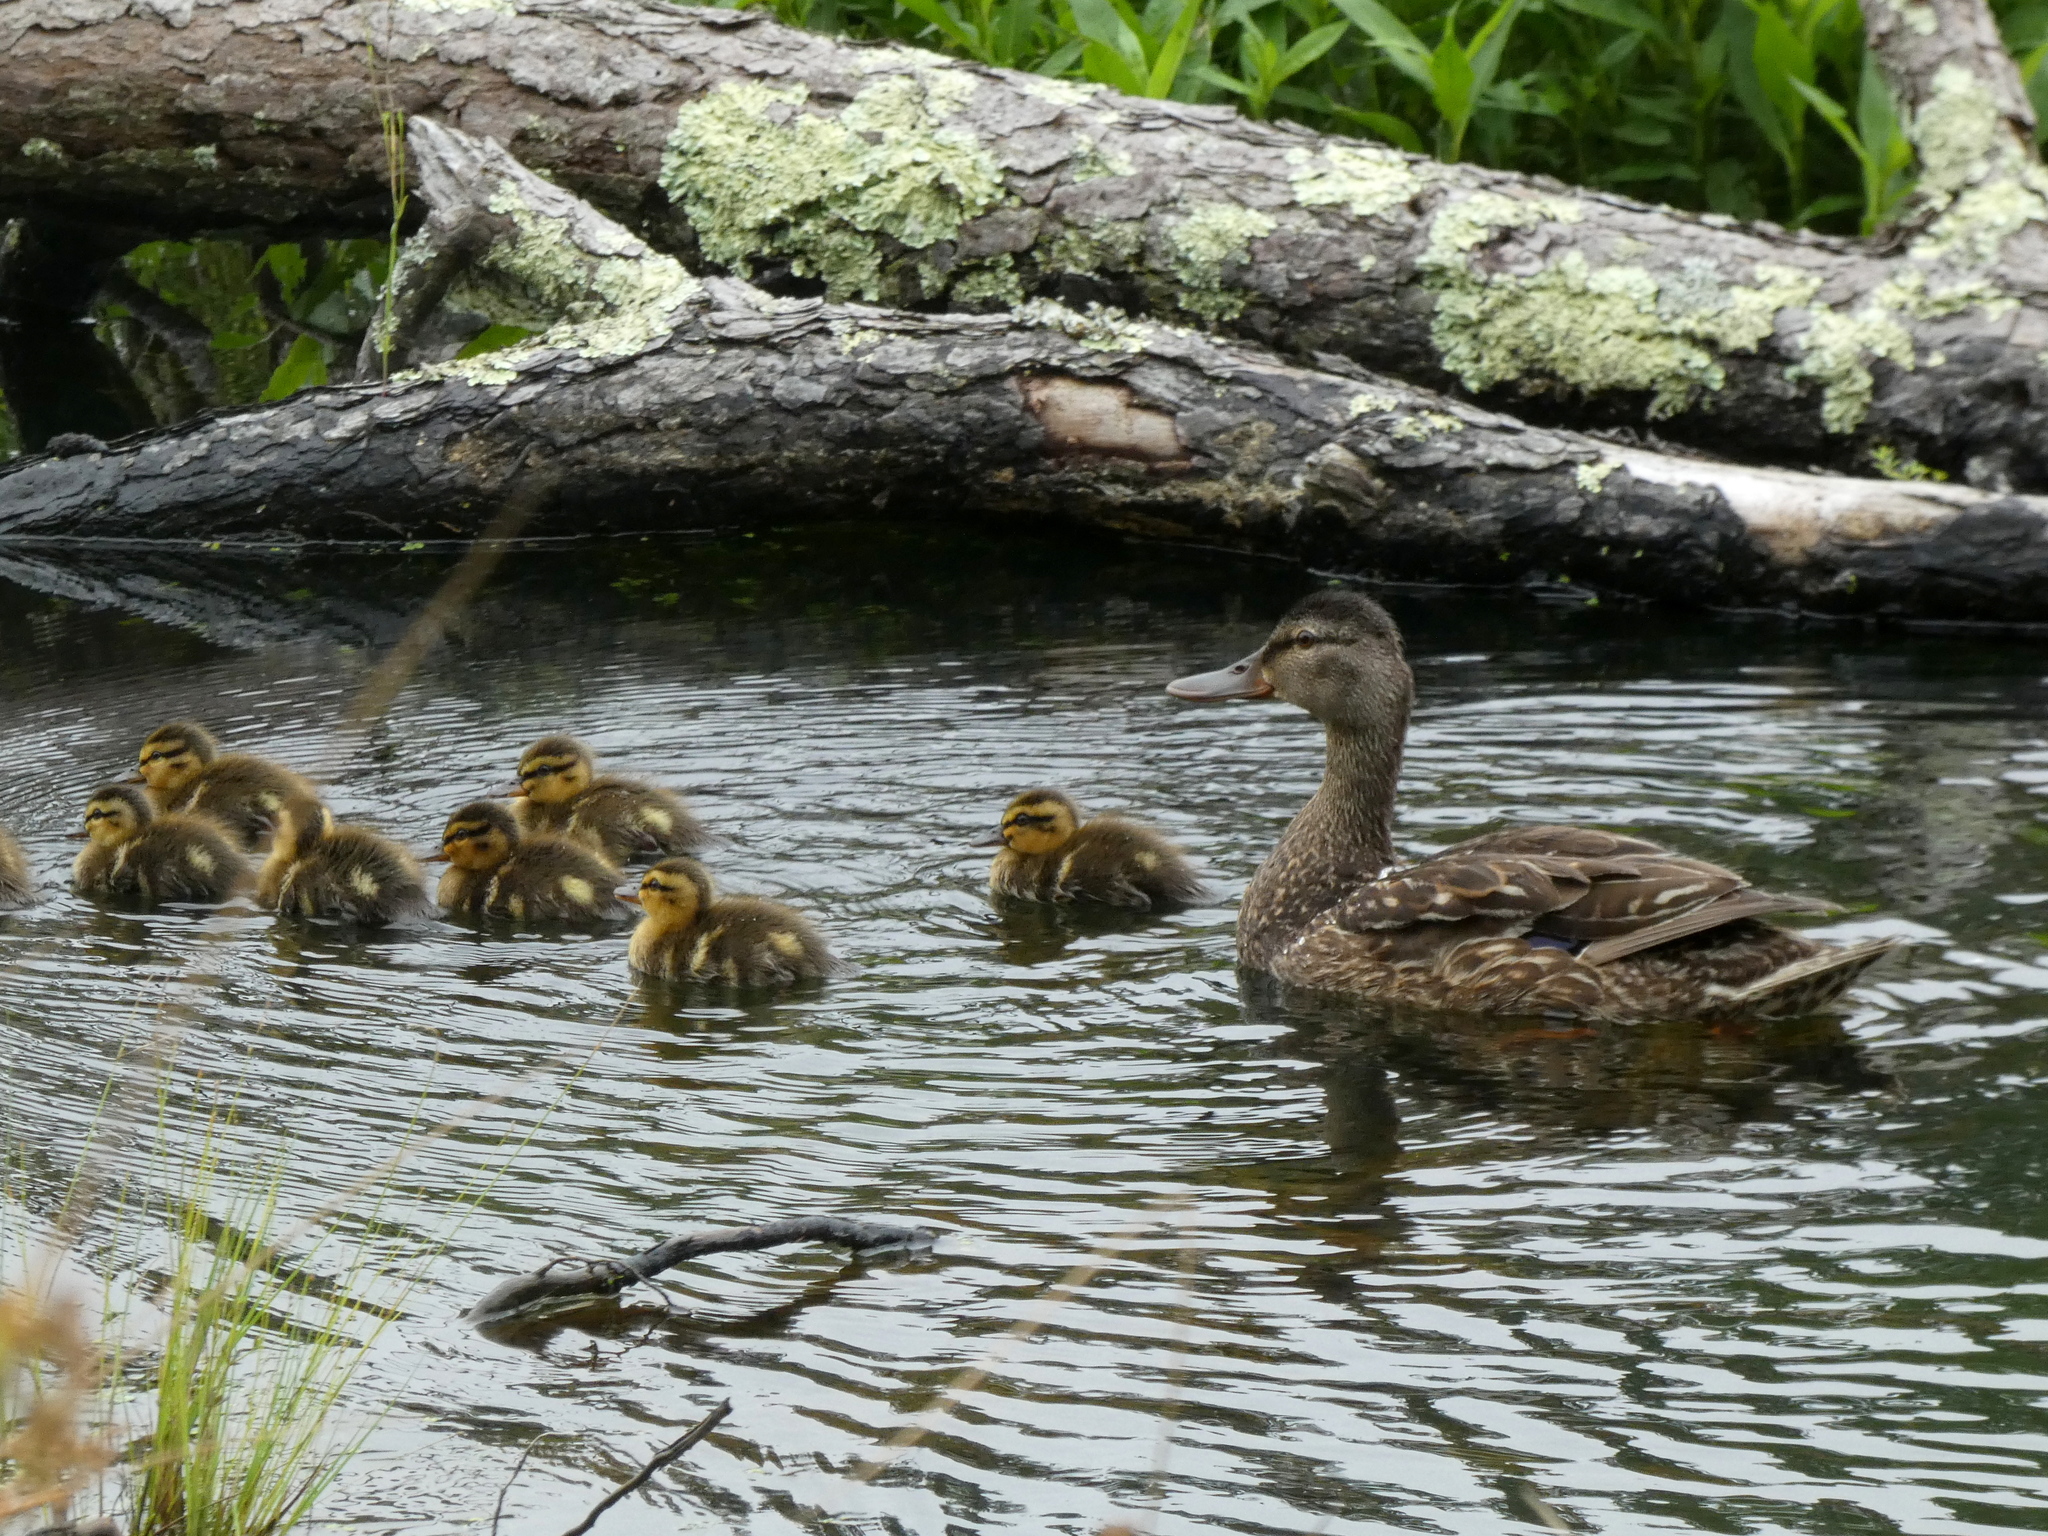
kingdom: Animalia
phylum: Chordata
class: Aves
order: Anseriformes
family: Anatidae
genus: Anas
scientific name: Anas platyrhynchos
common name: Mallard
